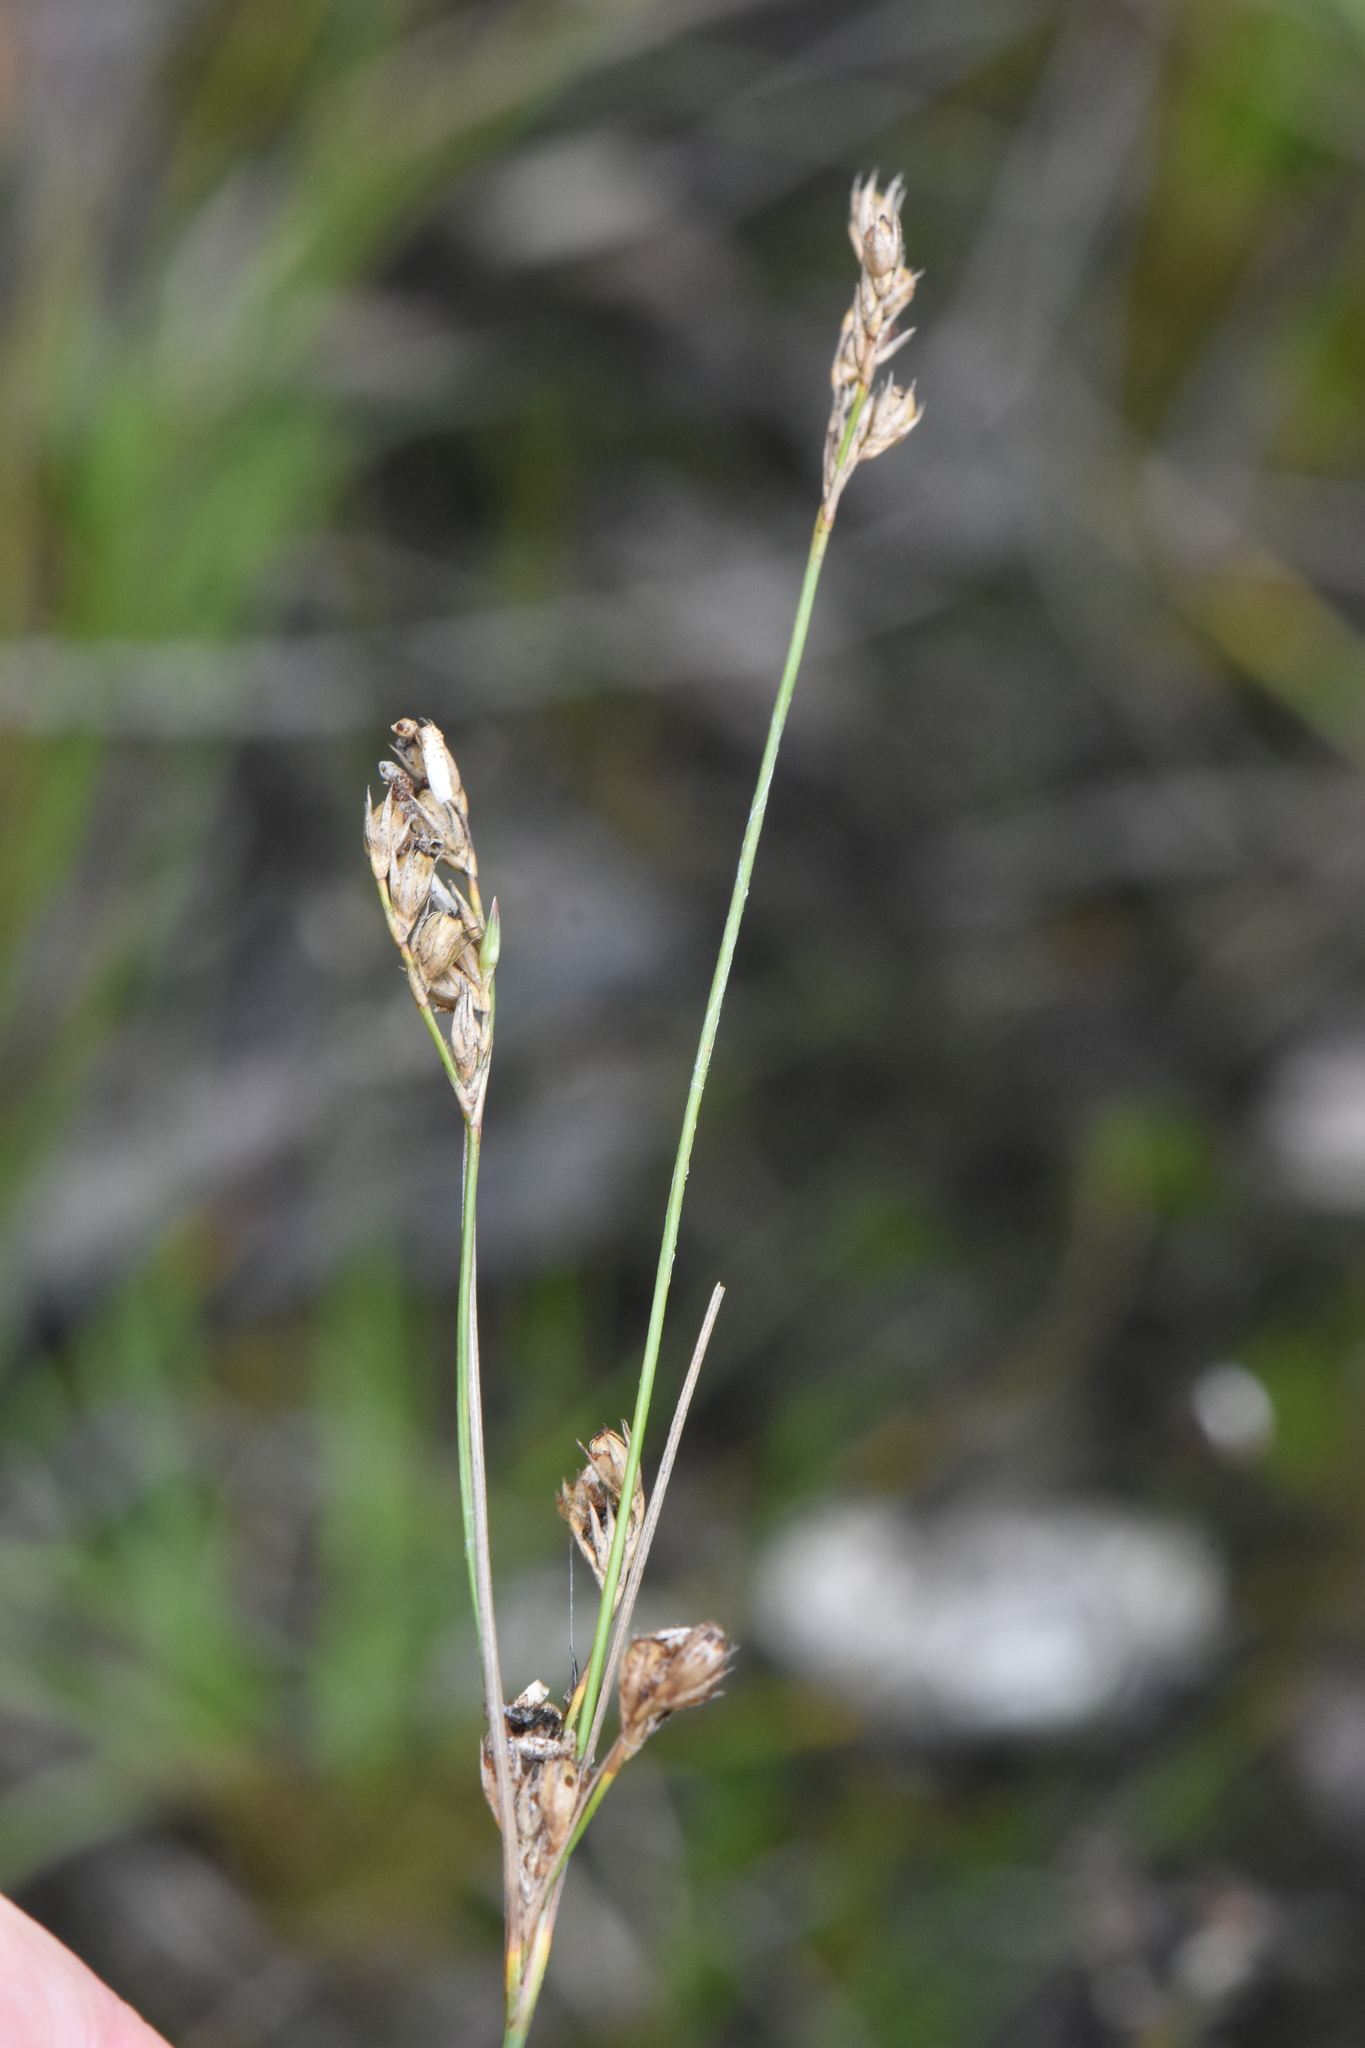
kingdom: Plantae
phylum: Tracheophyta
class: Liliopsida
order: Poales
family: Juncaceae
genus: Juncus
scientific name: Juncus tenuis
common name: Slender rush
